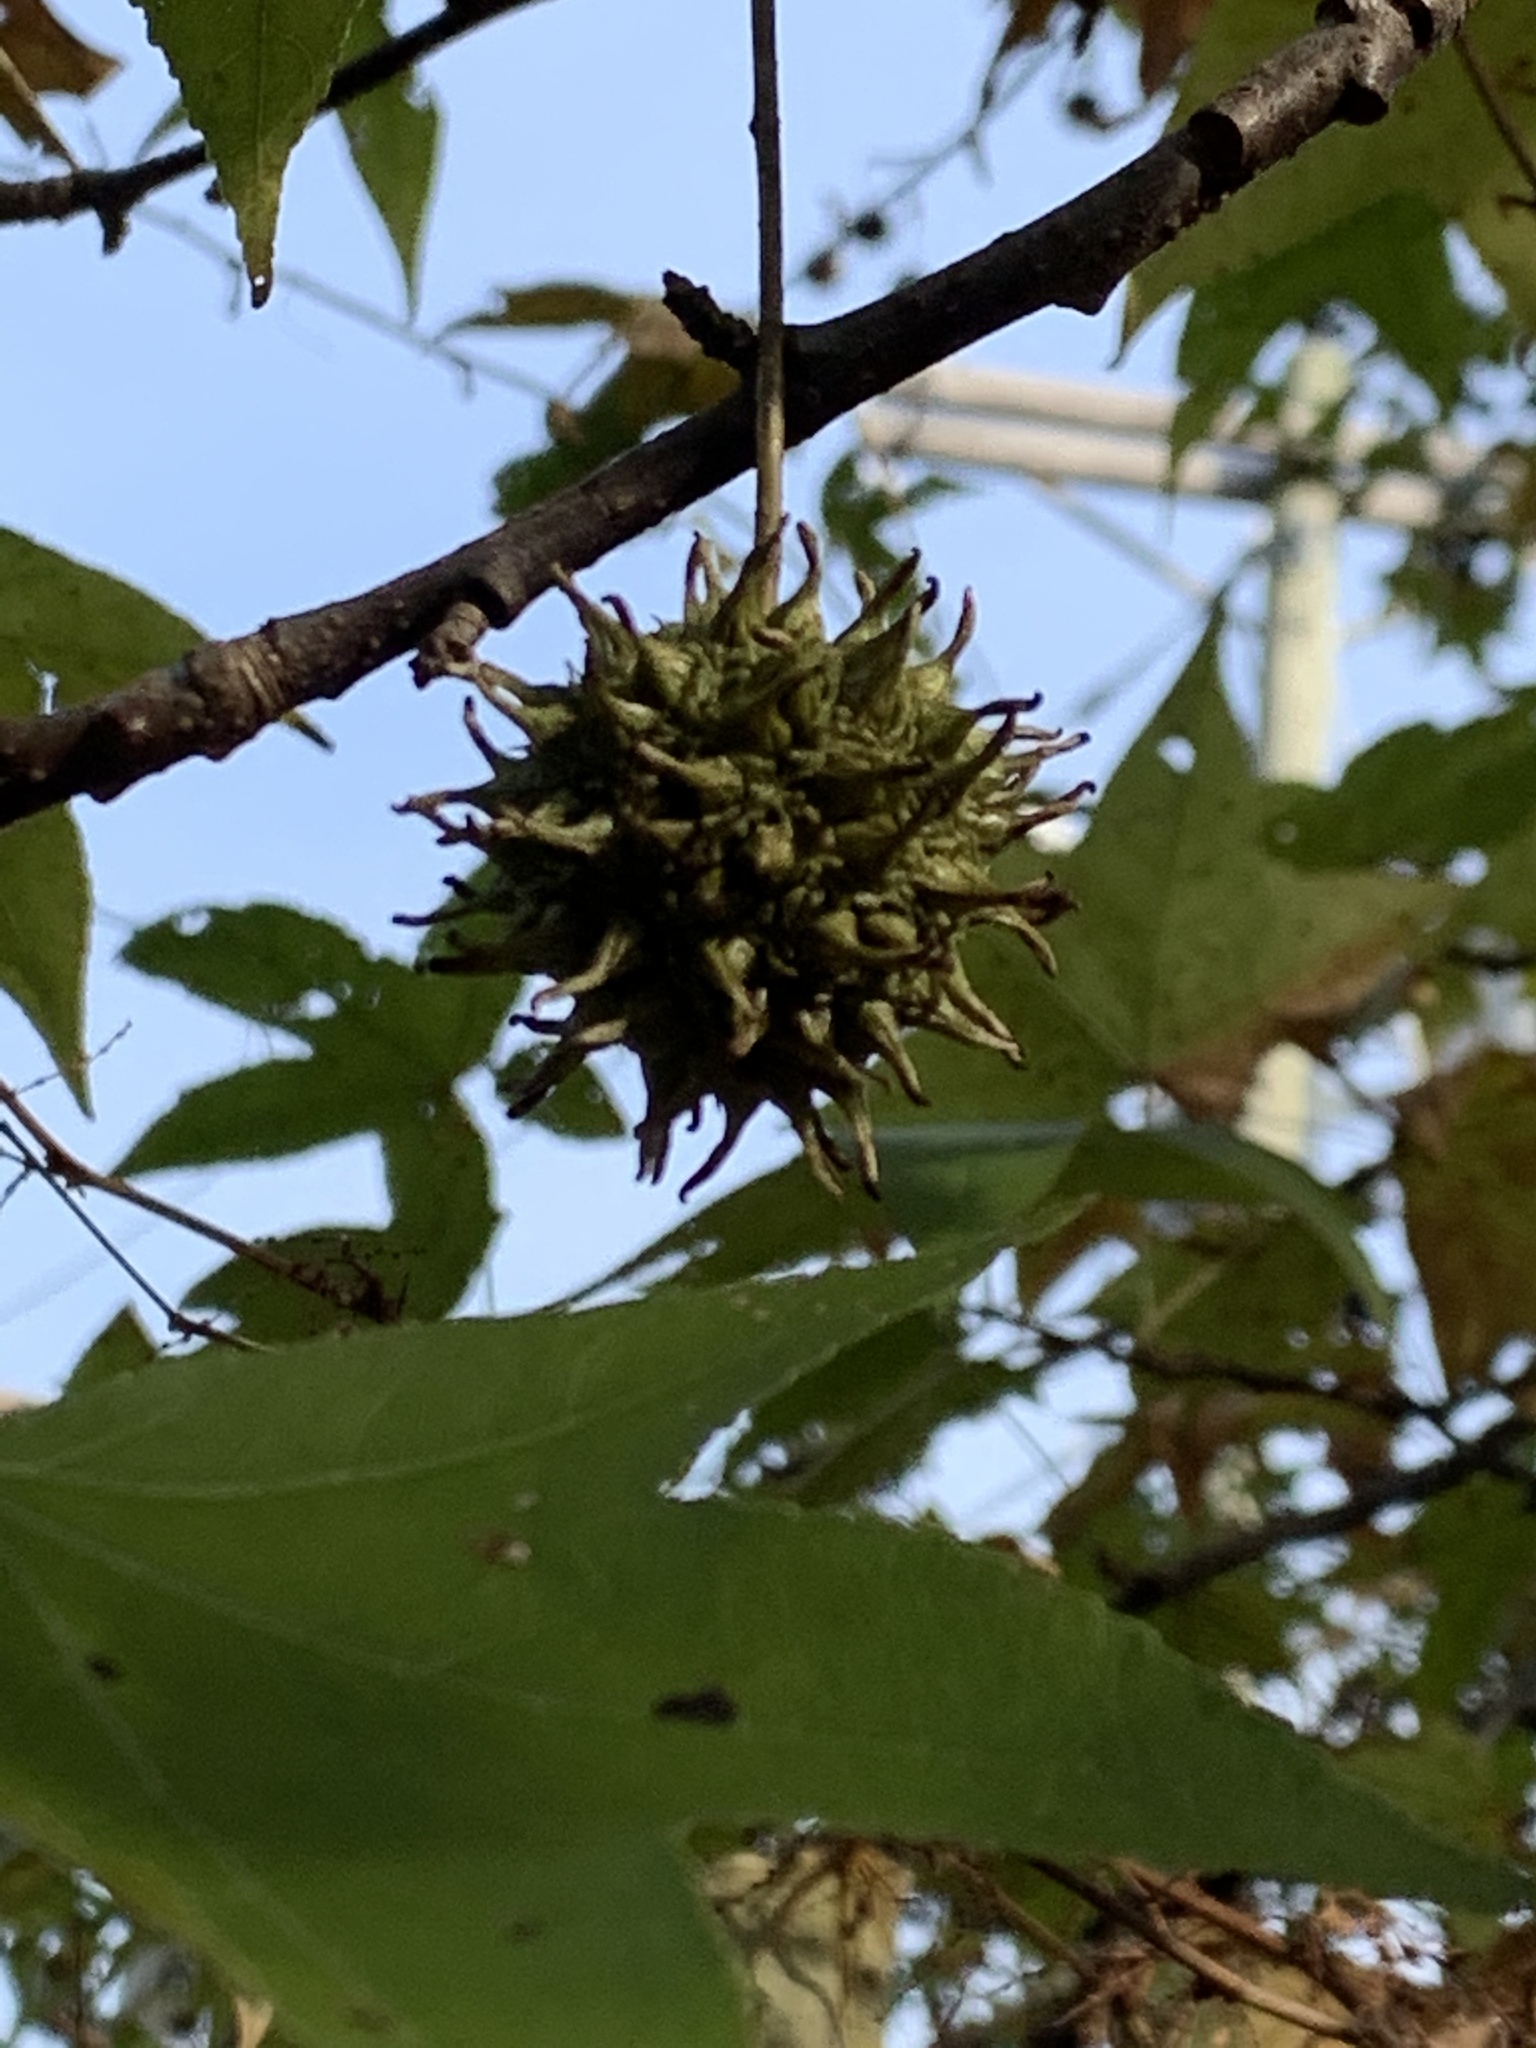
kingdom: Plantae
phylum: Tracheophyta
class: Magnoliopsida
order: Saxifragales
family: Altingiaceae
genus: Liquidambar
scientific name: Liquidambar styraciflua
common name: Sweet gum
